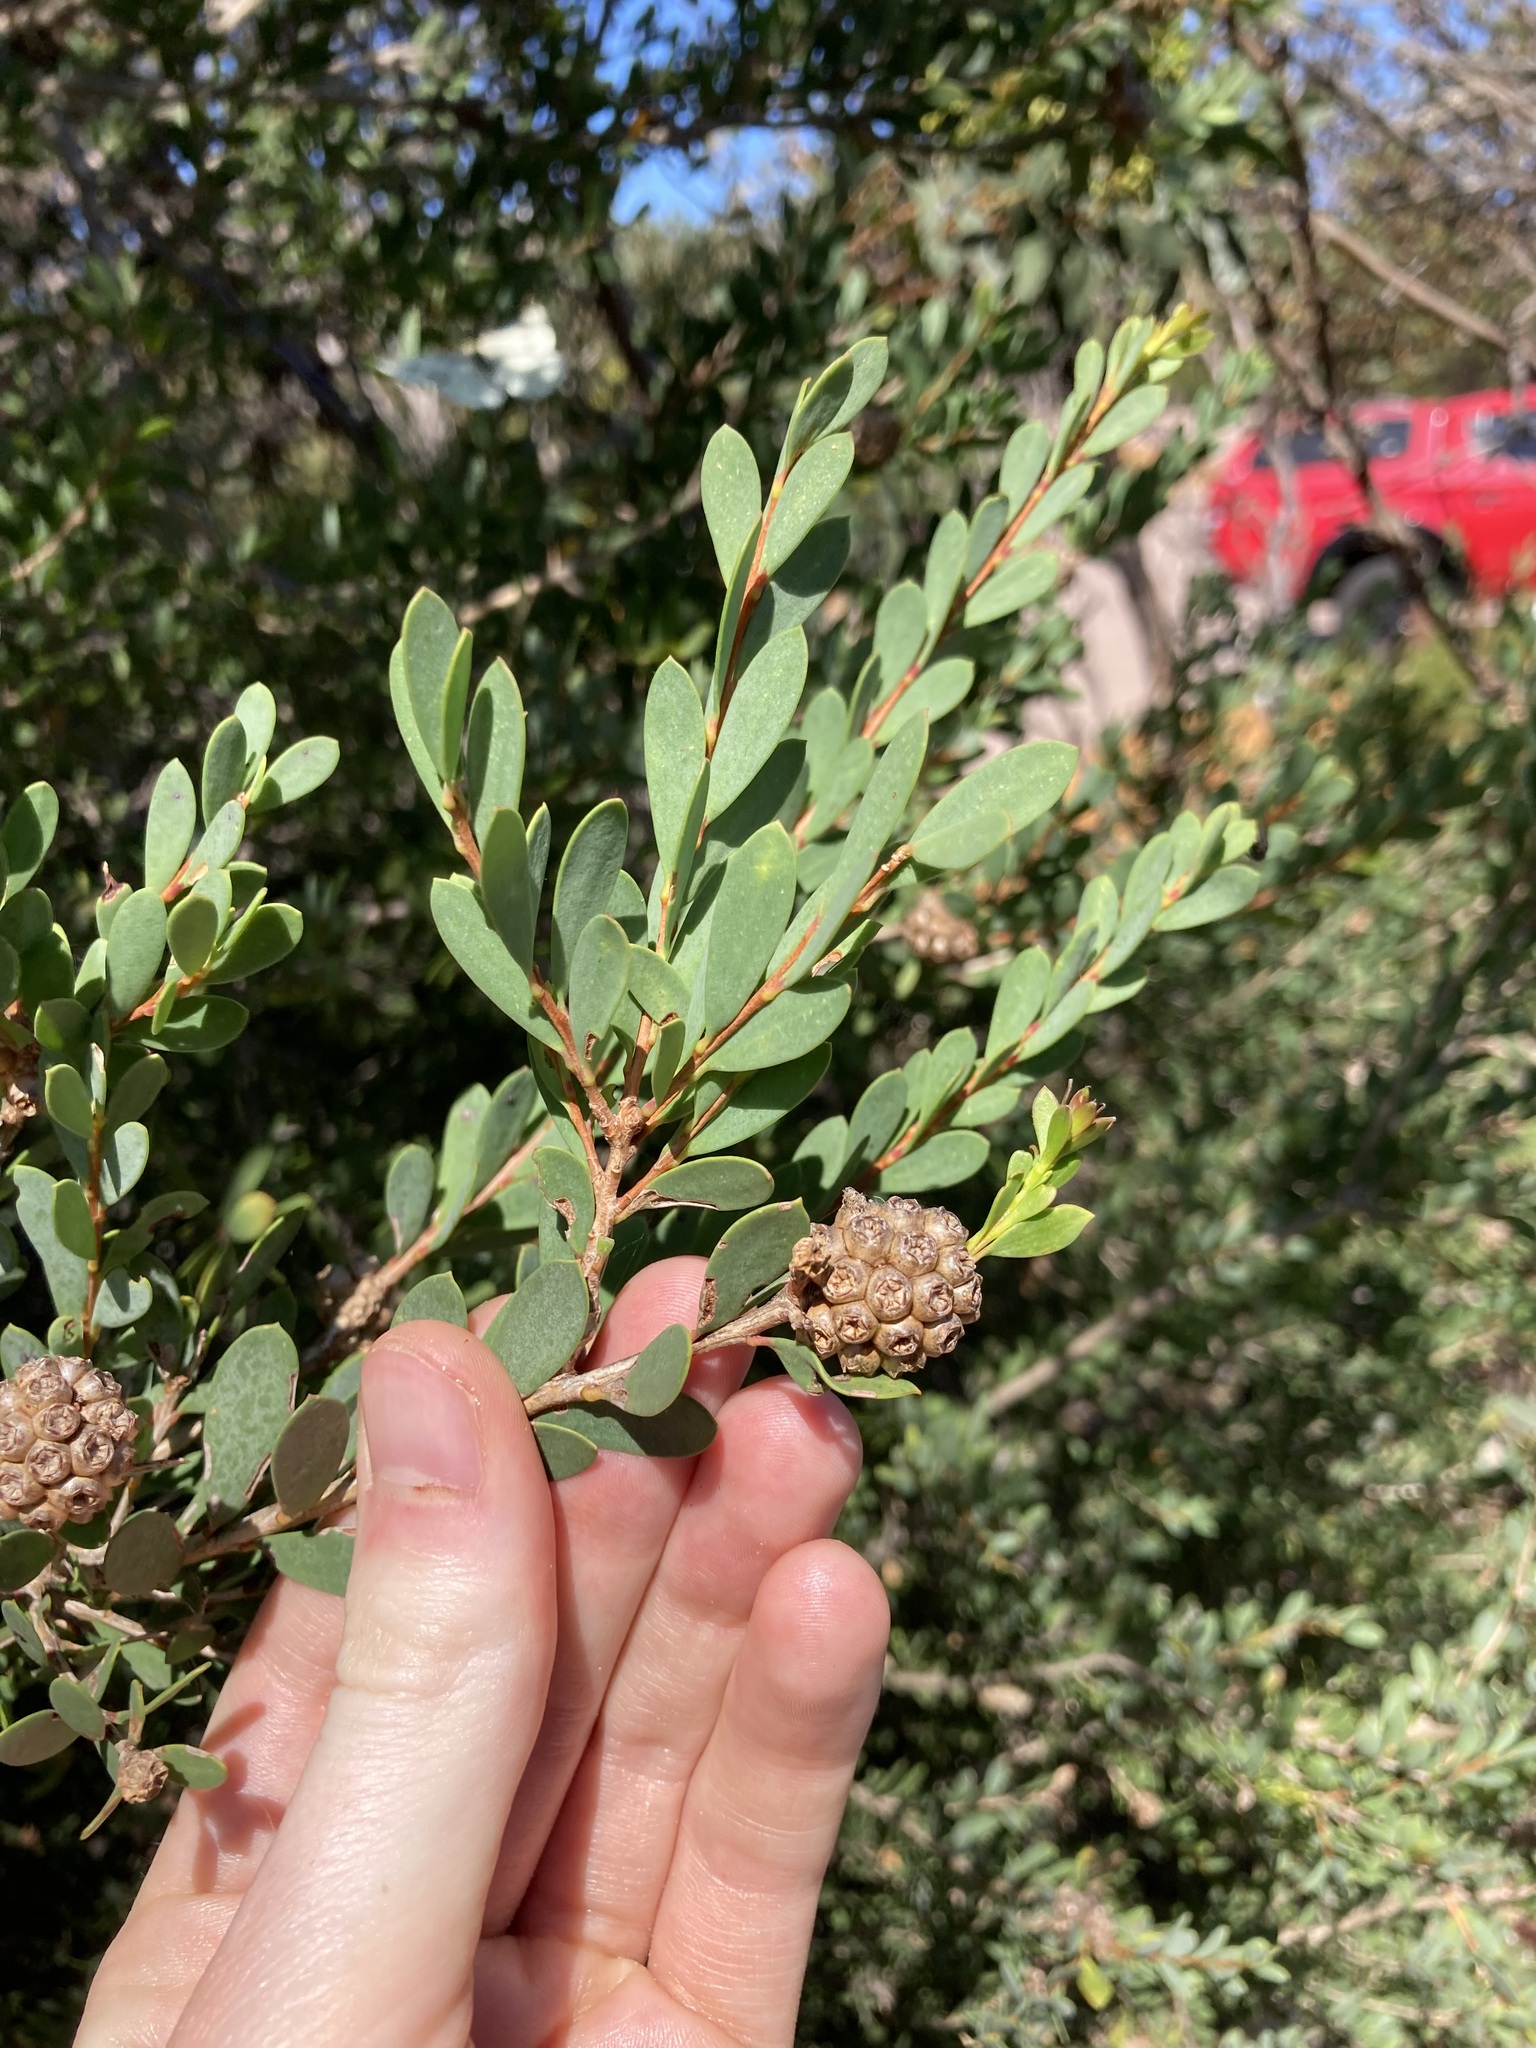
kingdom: Plantae
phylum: Tracheophyta
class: Magnoliopsida
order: Myrtales
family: Myrtaceae
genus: Melaleuca
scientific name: Melaleuca nesophila
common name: Mauve honey myrtle
